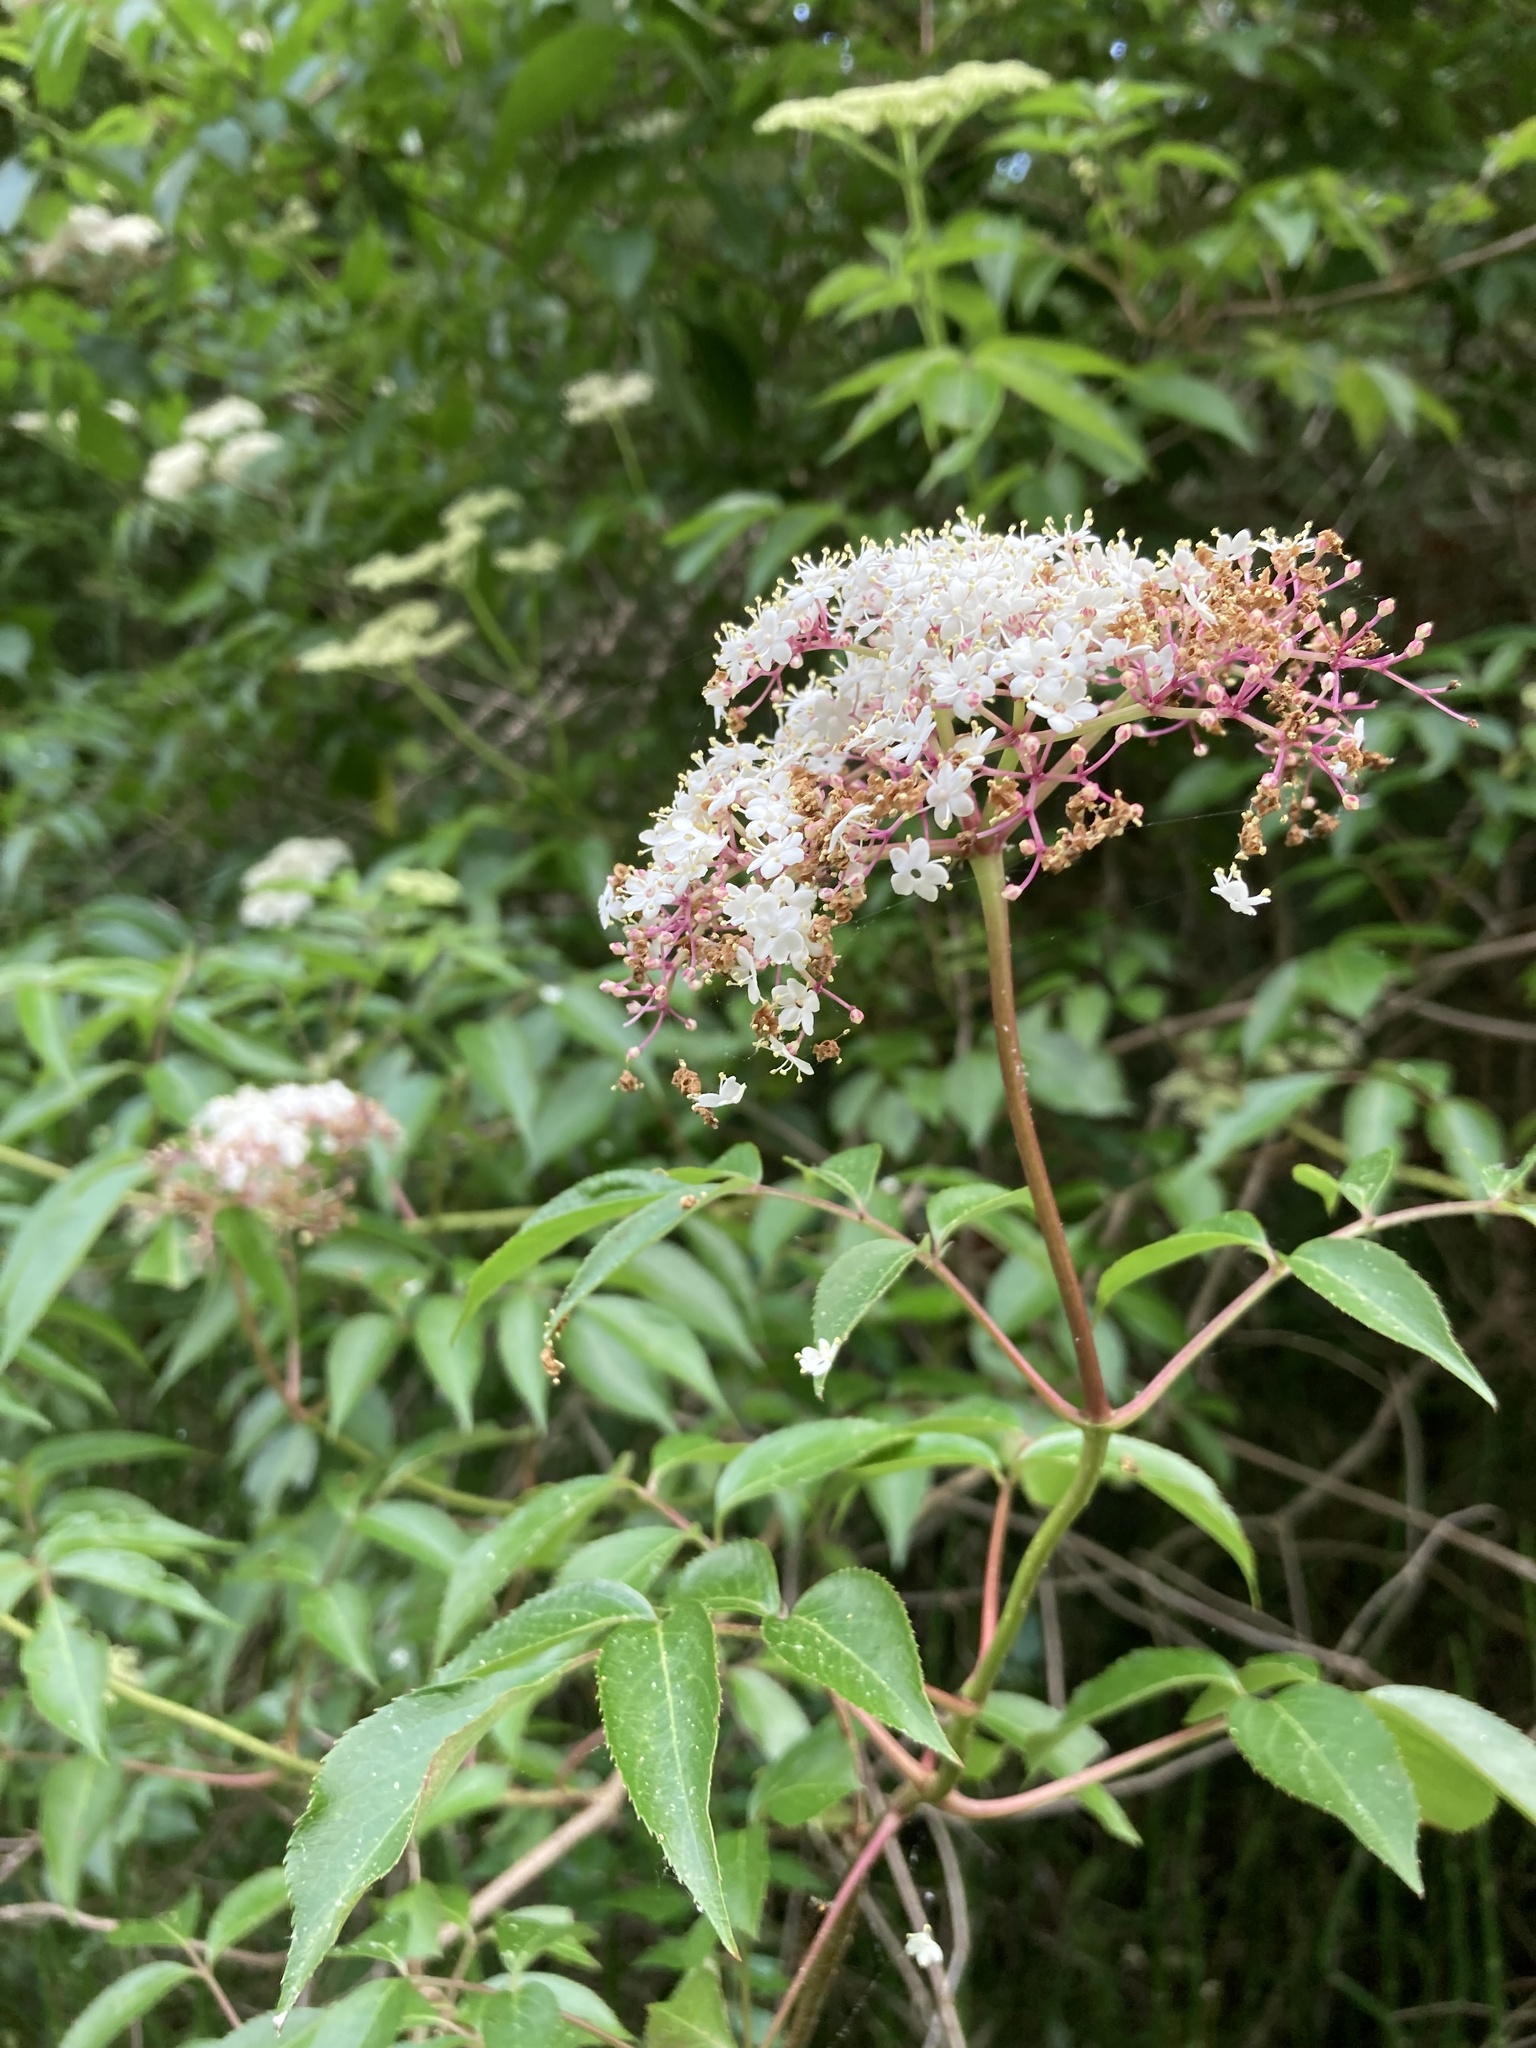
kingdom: Plantae
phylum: Tracheophyta
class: Magnoliopsida
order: Dipsacales
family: Viburnaceae
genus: Sambucus
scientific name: Sambucus canadensis
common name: American elder
